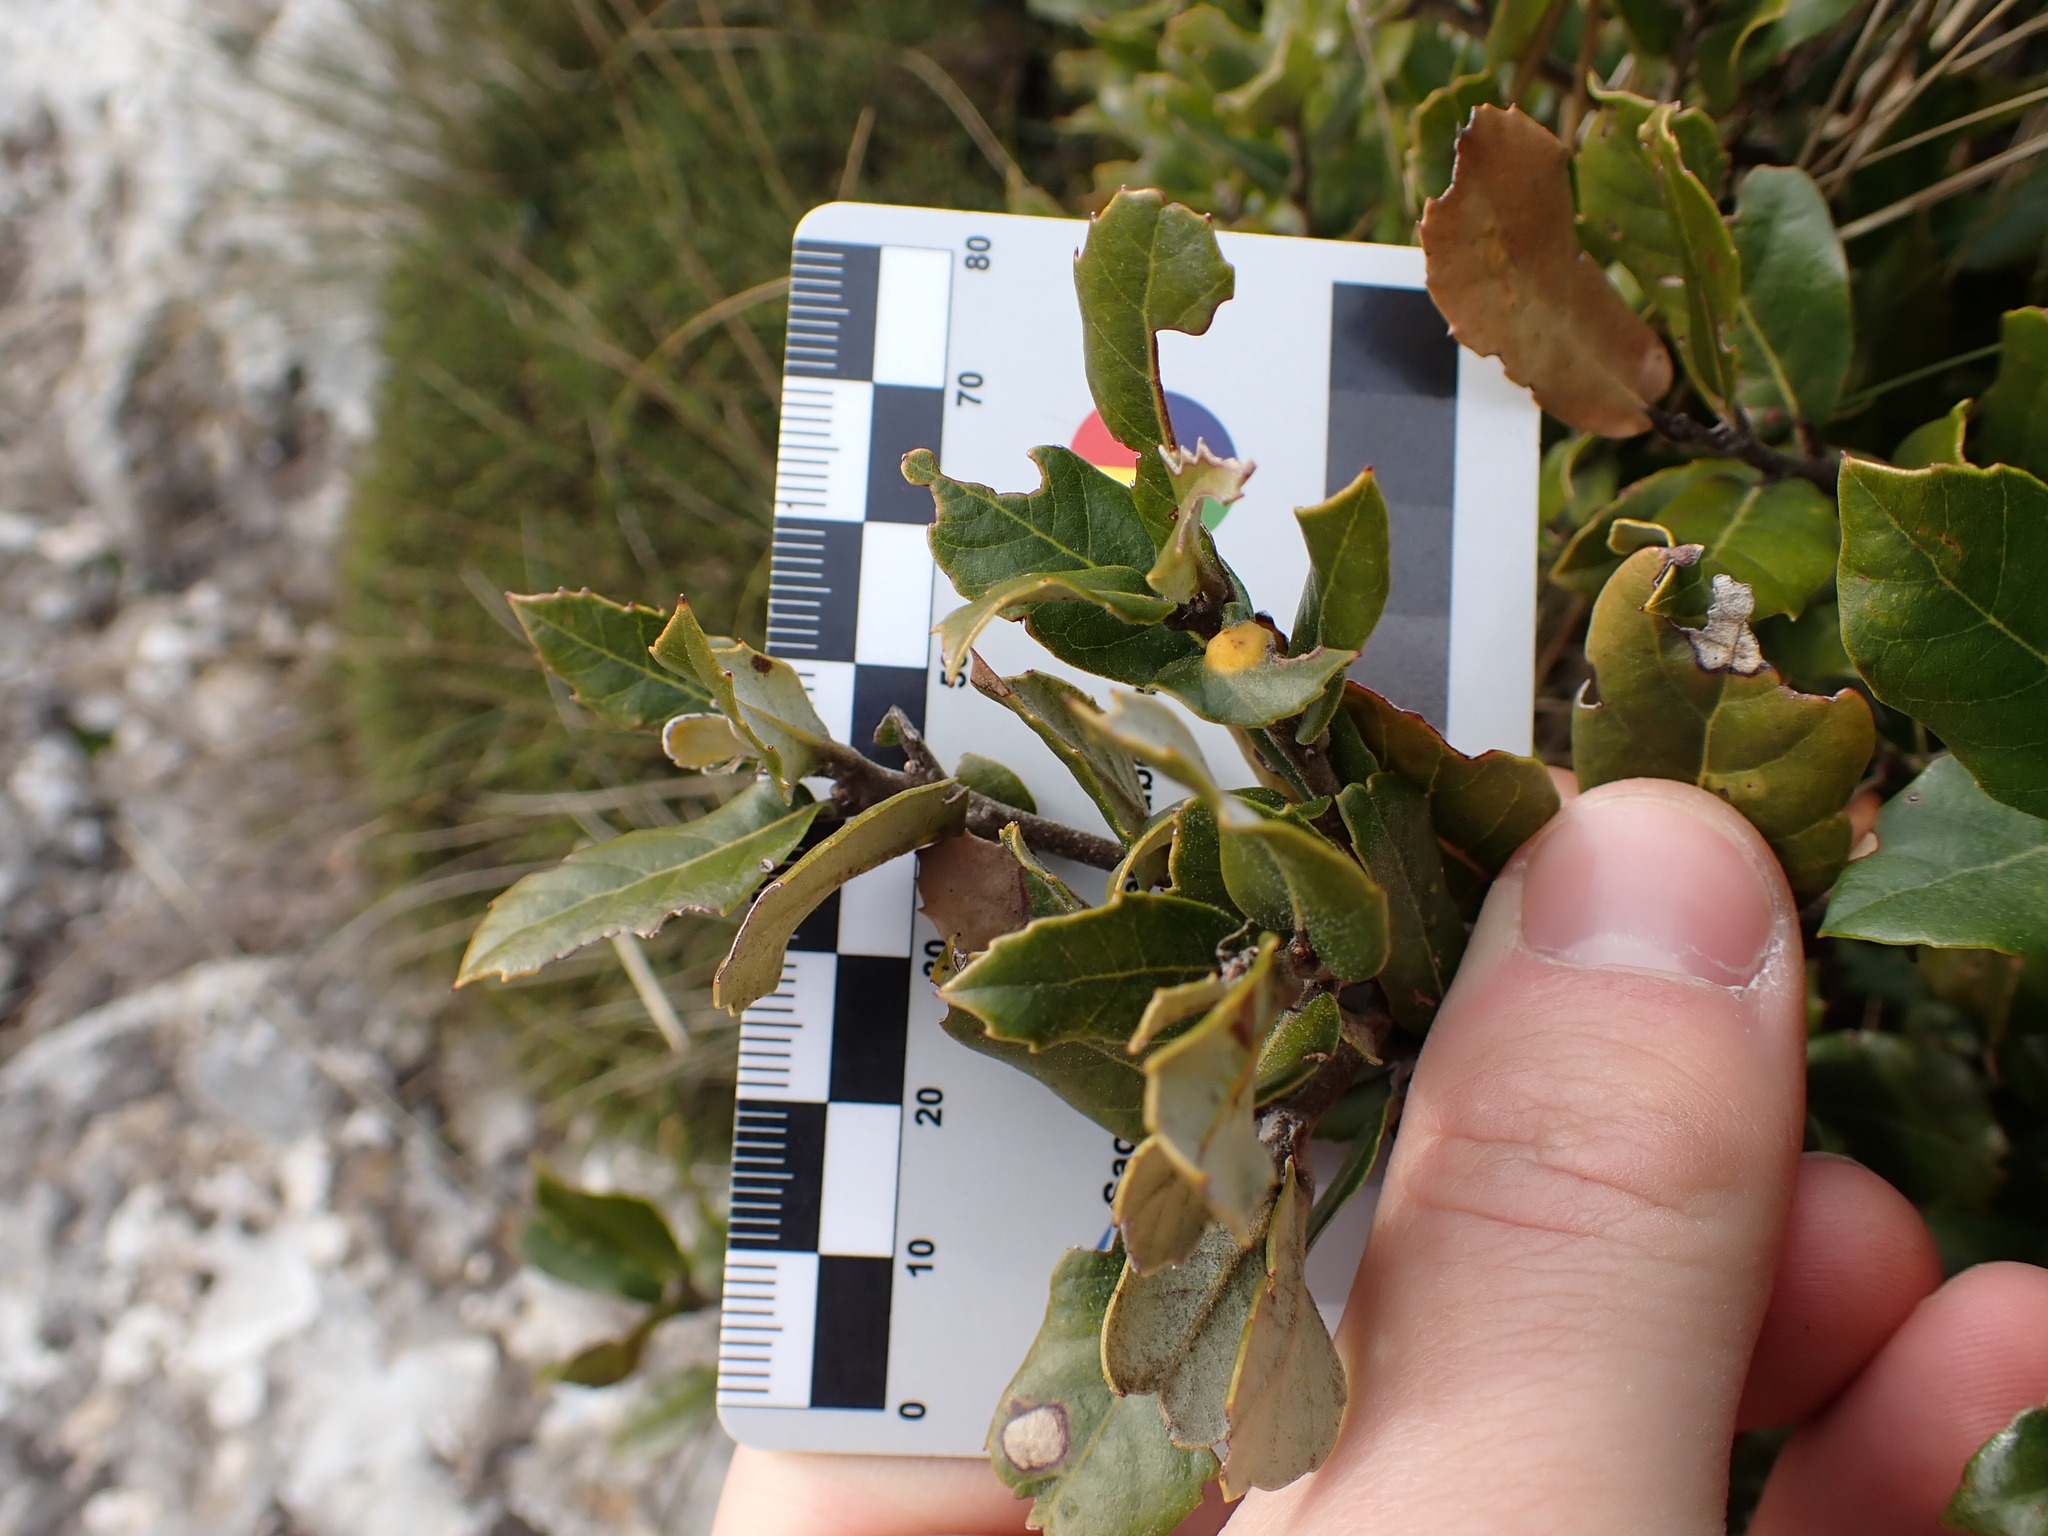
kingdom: Plantae
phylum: Tracheophyta
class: Magnoliopsida
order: Fagales
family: Fagaceae
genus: Quercus
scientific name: Quercus ilex
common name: Evergreen oak
